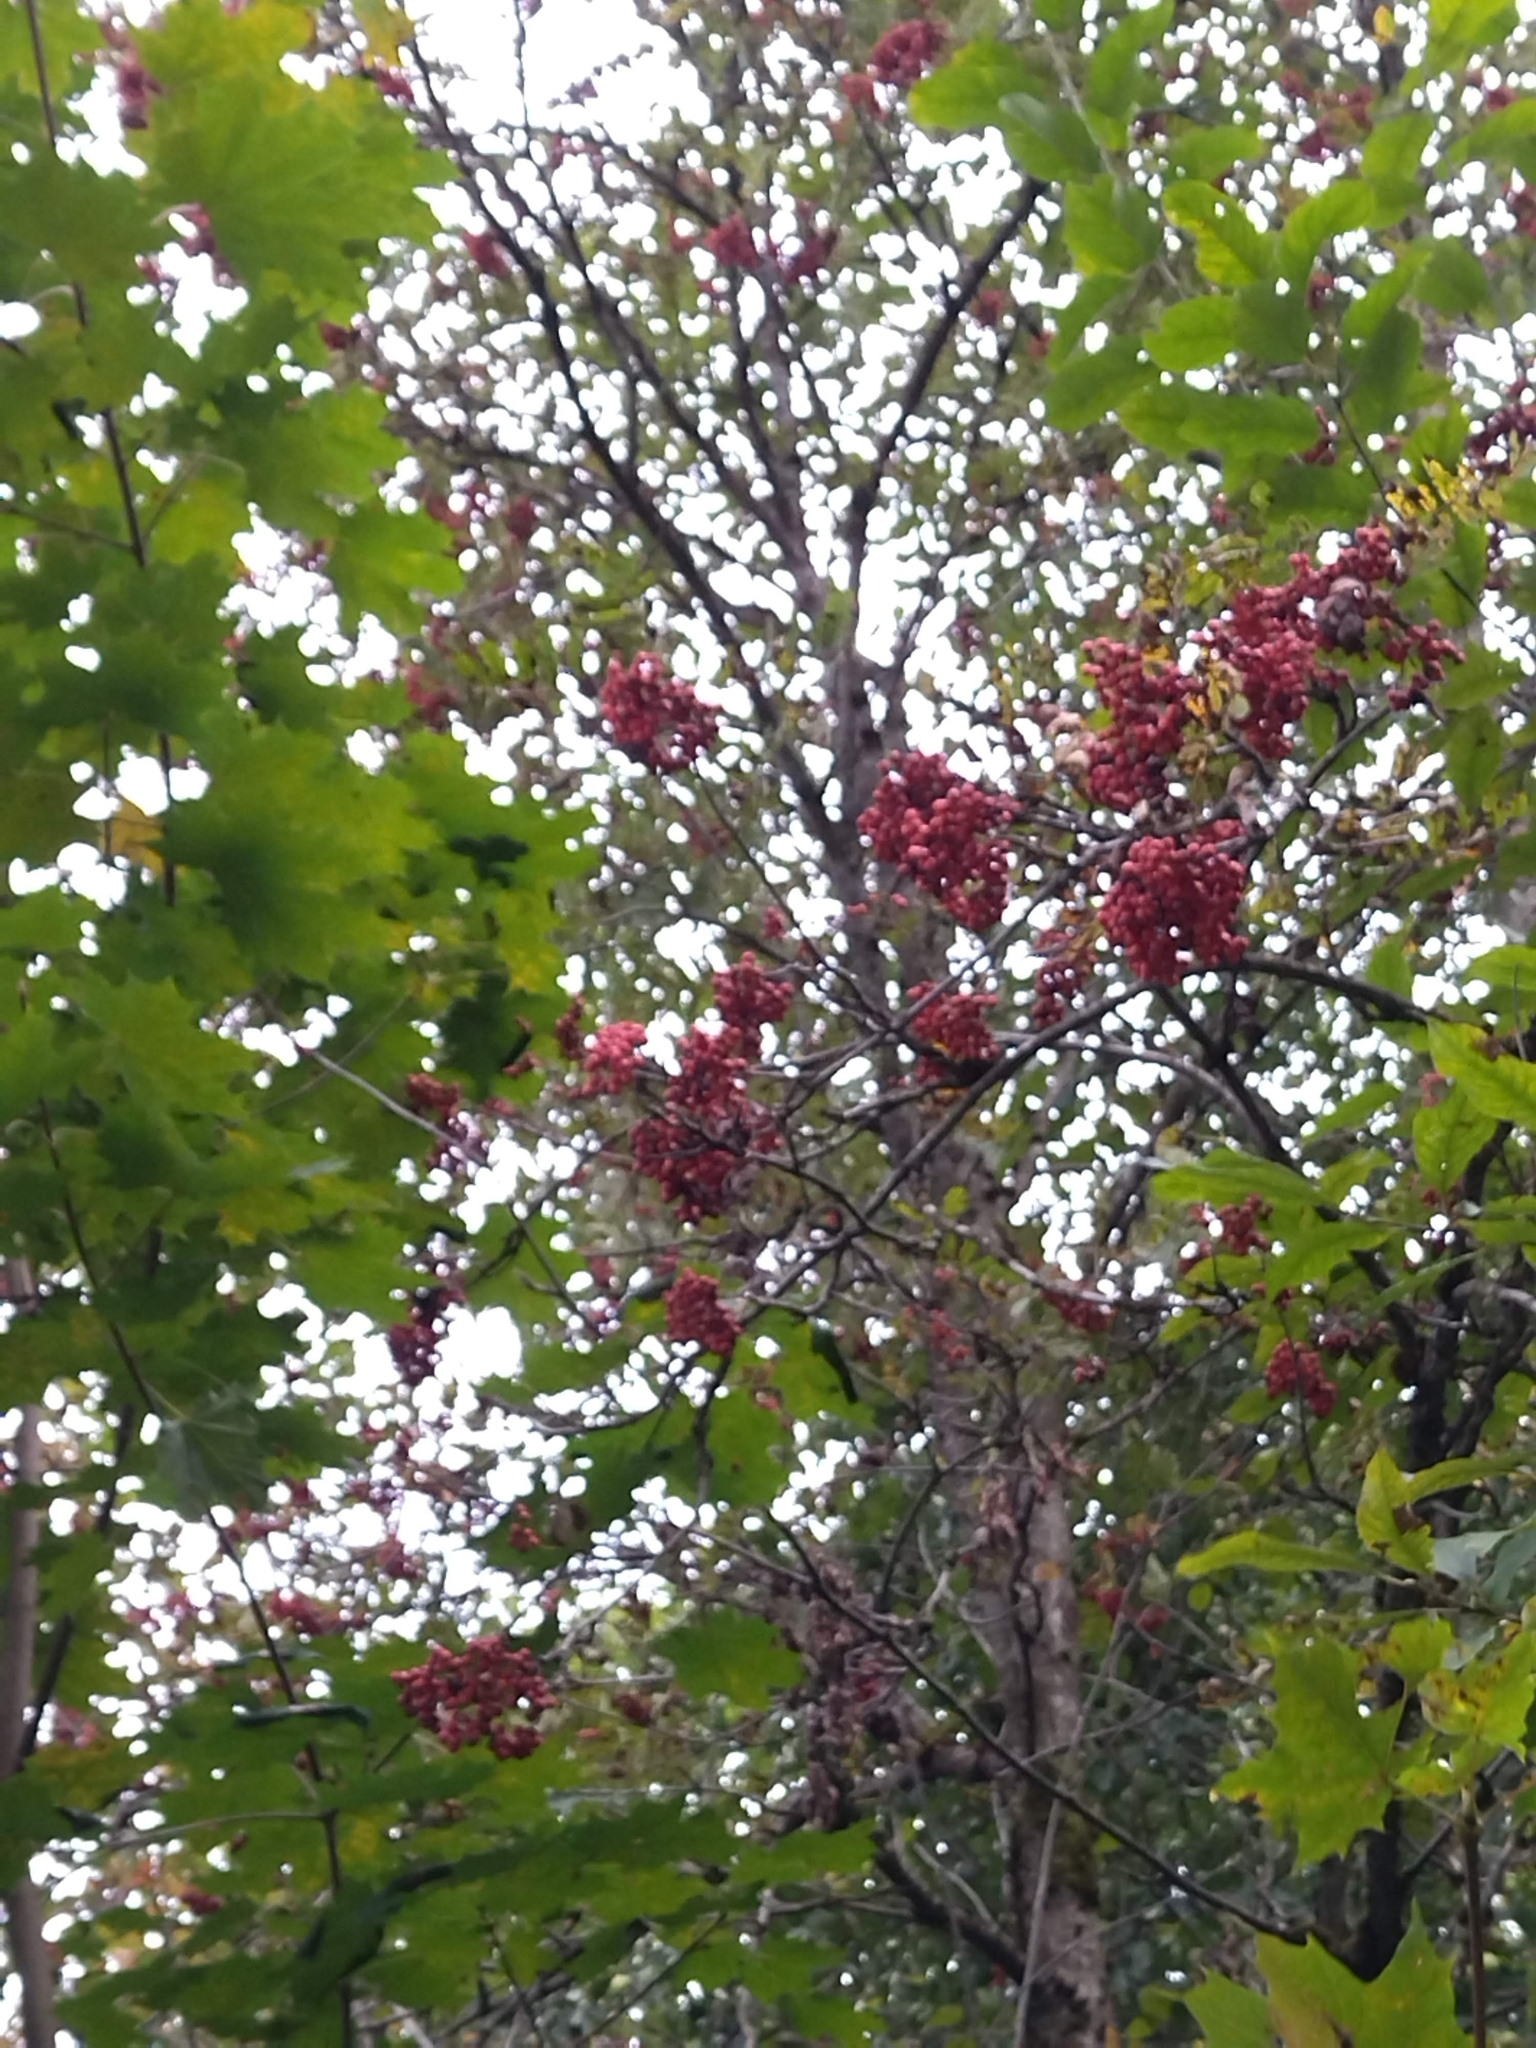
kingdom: Plantae
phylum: Tracheophyta
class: Magnoliopsida
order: Rosales
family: Rosaceae
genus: Sorbus
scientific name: Sorbus aucuparia
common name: Rowan
